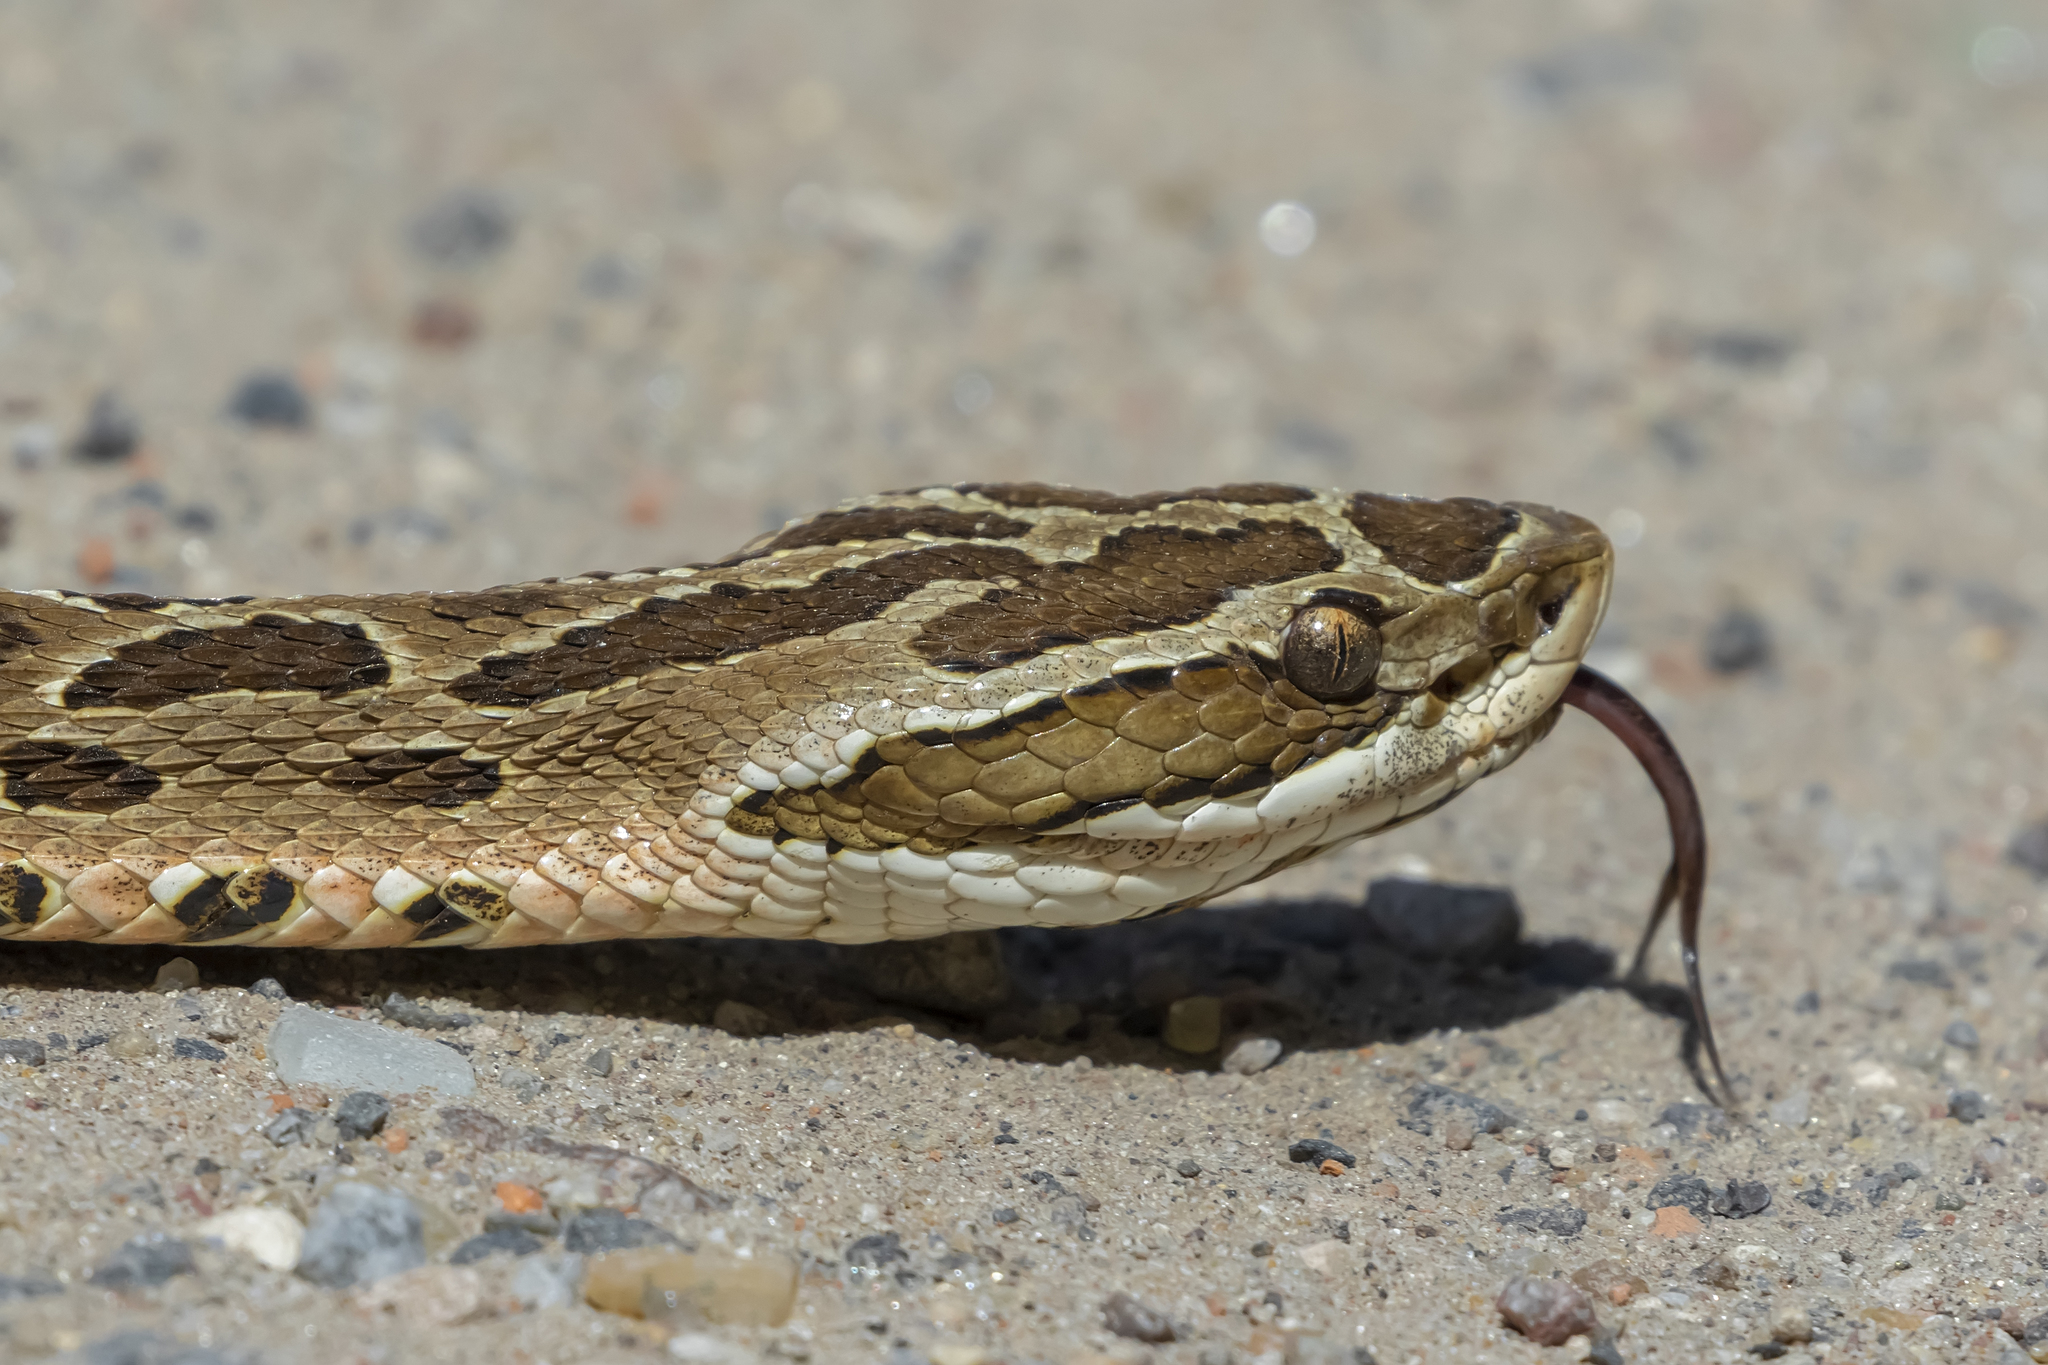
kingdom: Animalia
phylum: Chordata
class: Squamata
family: Viperidae
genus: Bothrops
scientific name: Bothrops alternatus
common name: Urutu
